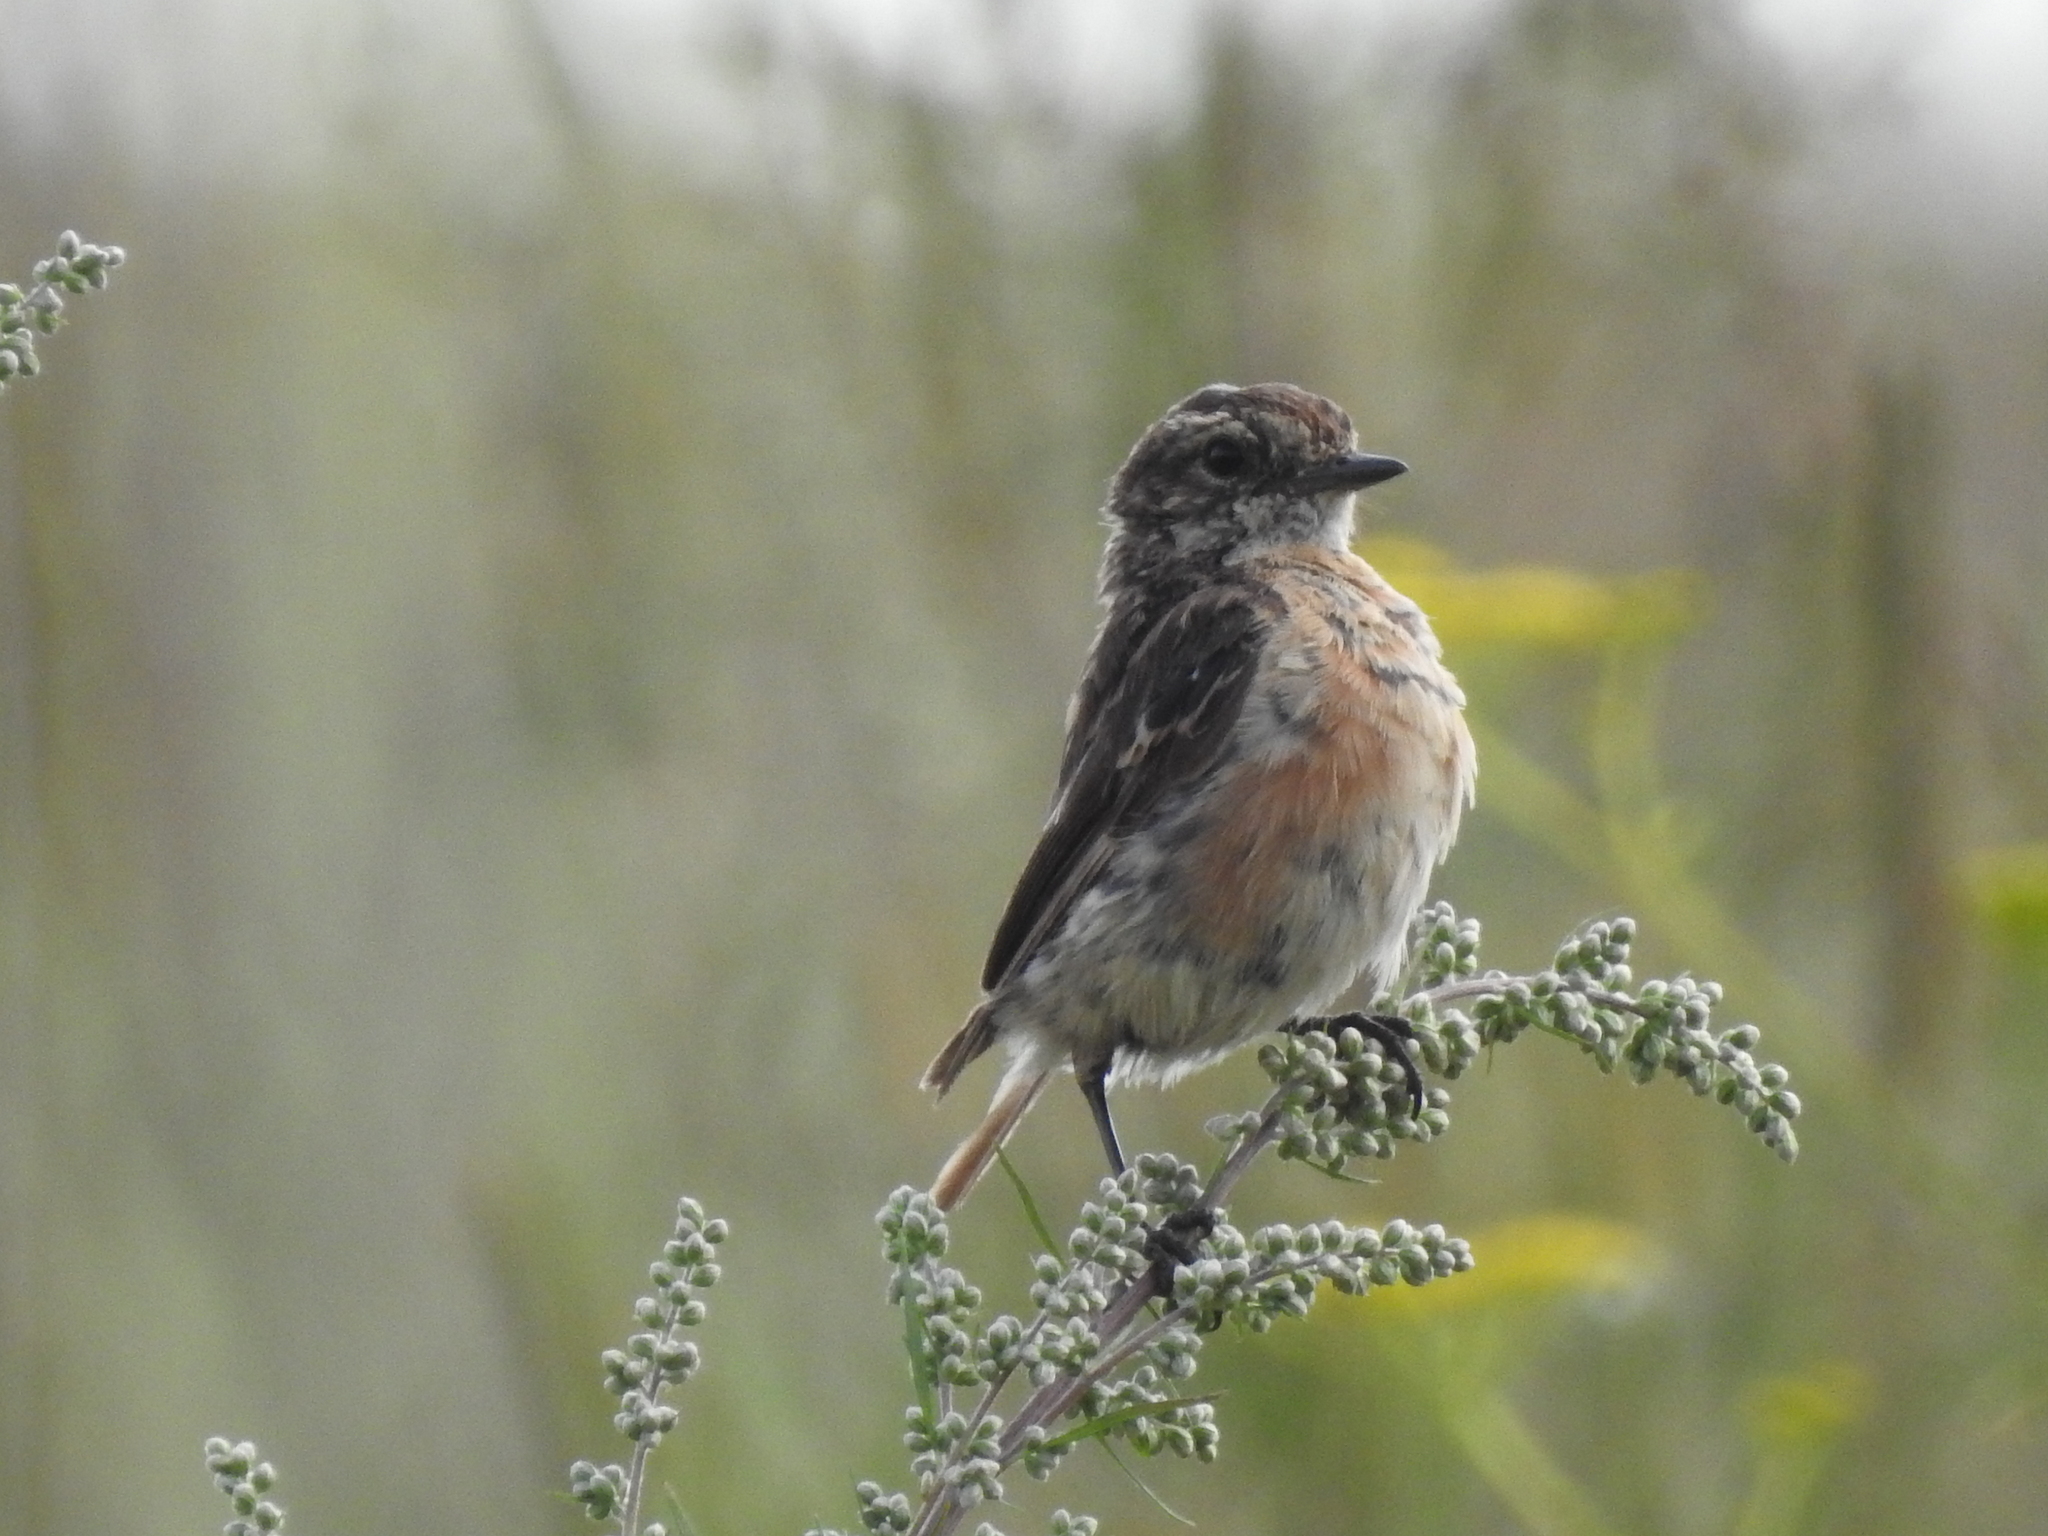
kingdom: Animalia
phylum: Chordata
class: Aves
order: Passeriformes
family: Muscicapidae
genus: Saxicola
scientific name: Saxicola maurus
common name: Siberian stonechat
